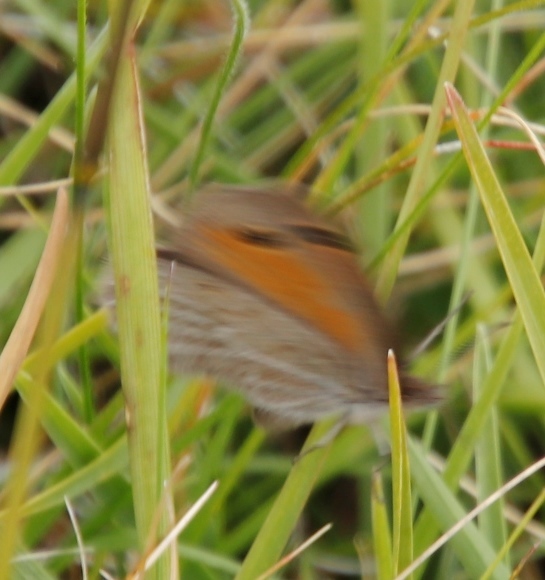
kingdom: Animalia
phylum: Arthropoda
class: Insecta
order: Lepidoptera
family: Nymphalidae
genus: Pseudonympha
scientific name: Pseudonympha magus
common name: Silver-bottom brown
